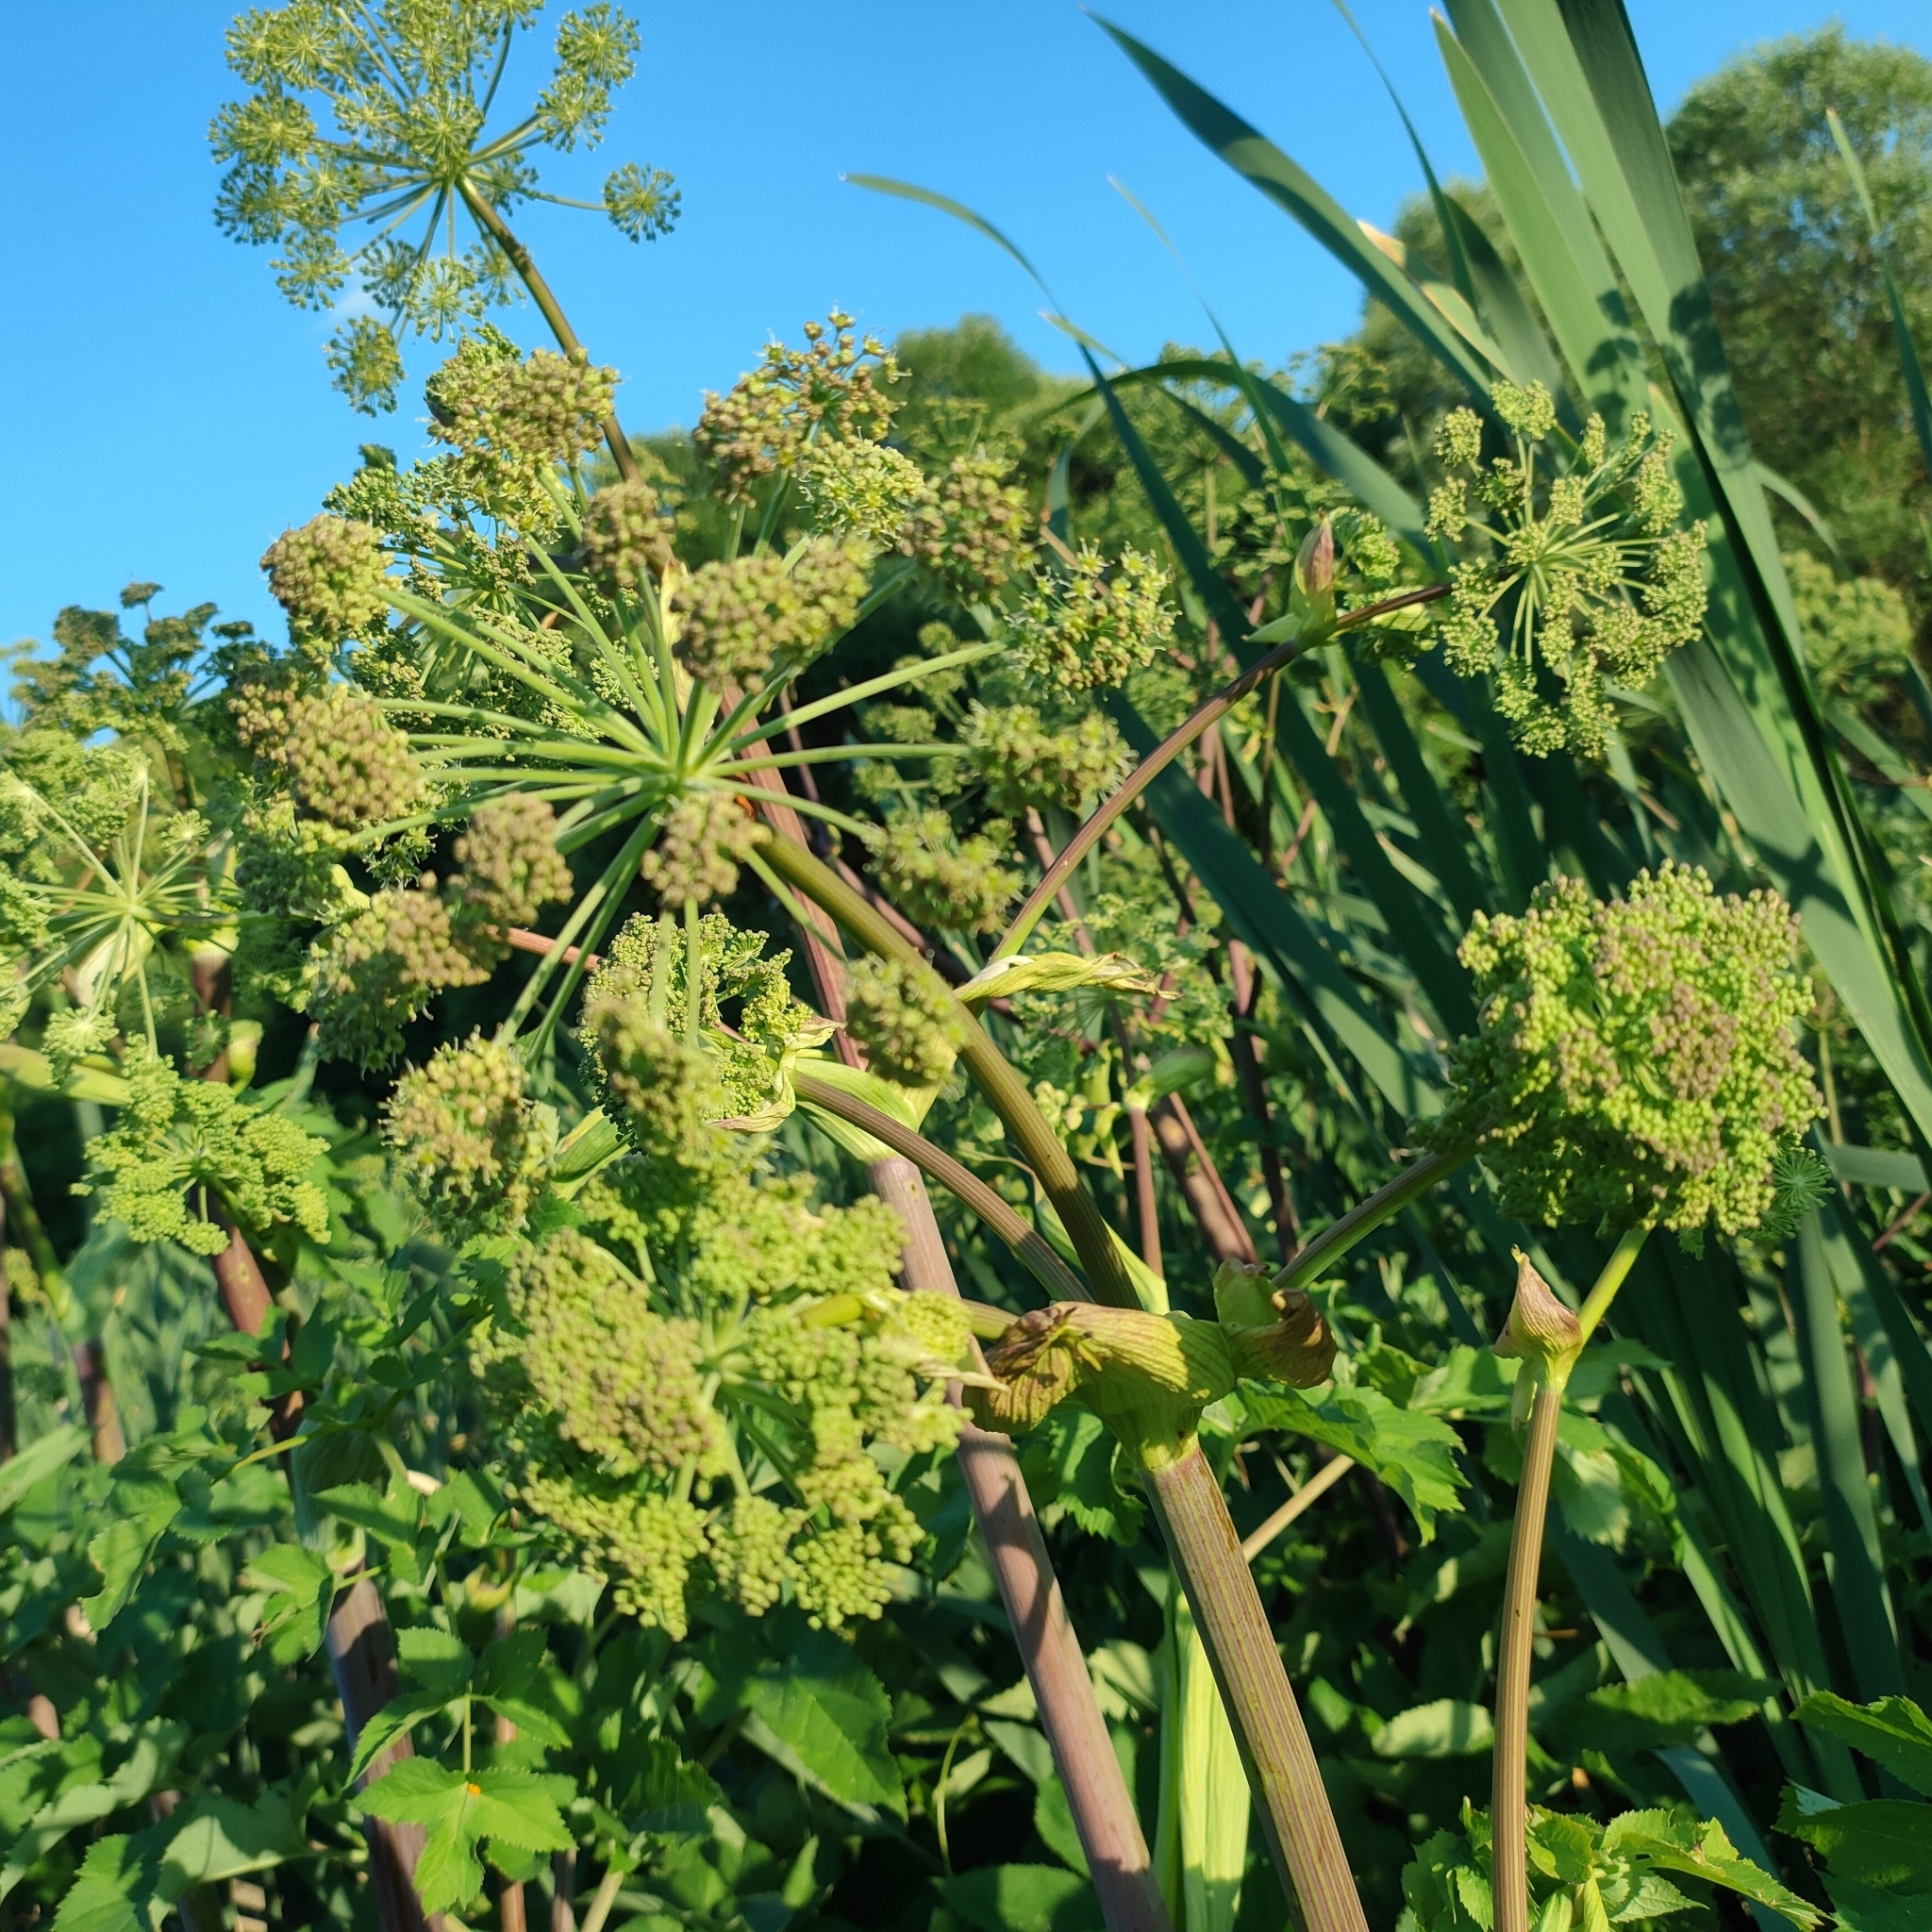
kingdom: Plantae
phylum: Tracheophyta
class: Magnoliopsida
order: Apiales
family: Apiaceae
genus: Angelica
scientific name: Angelica archangelica
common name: Garden angelica
